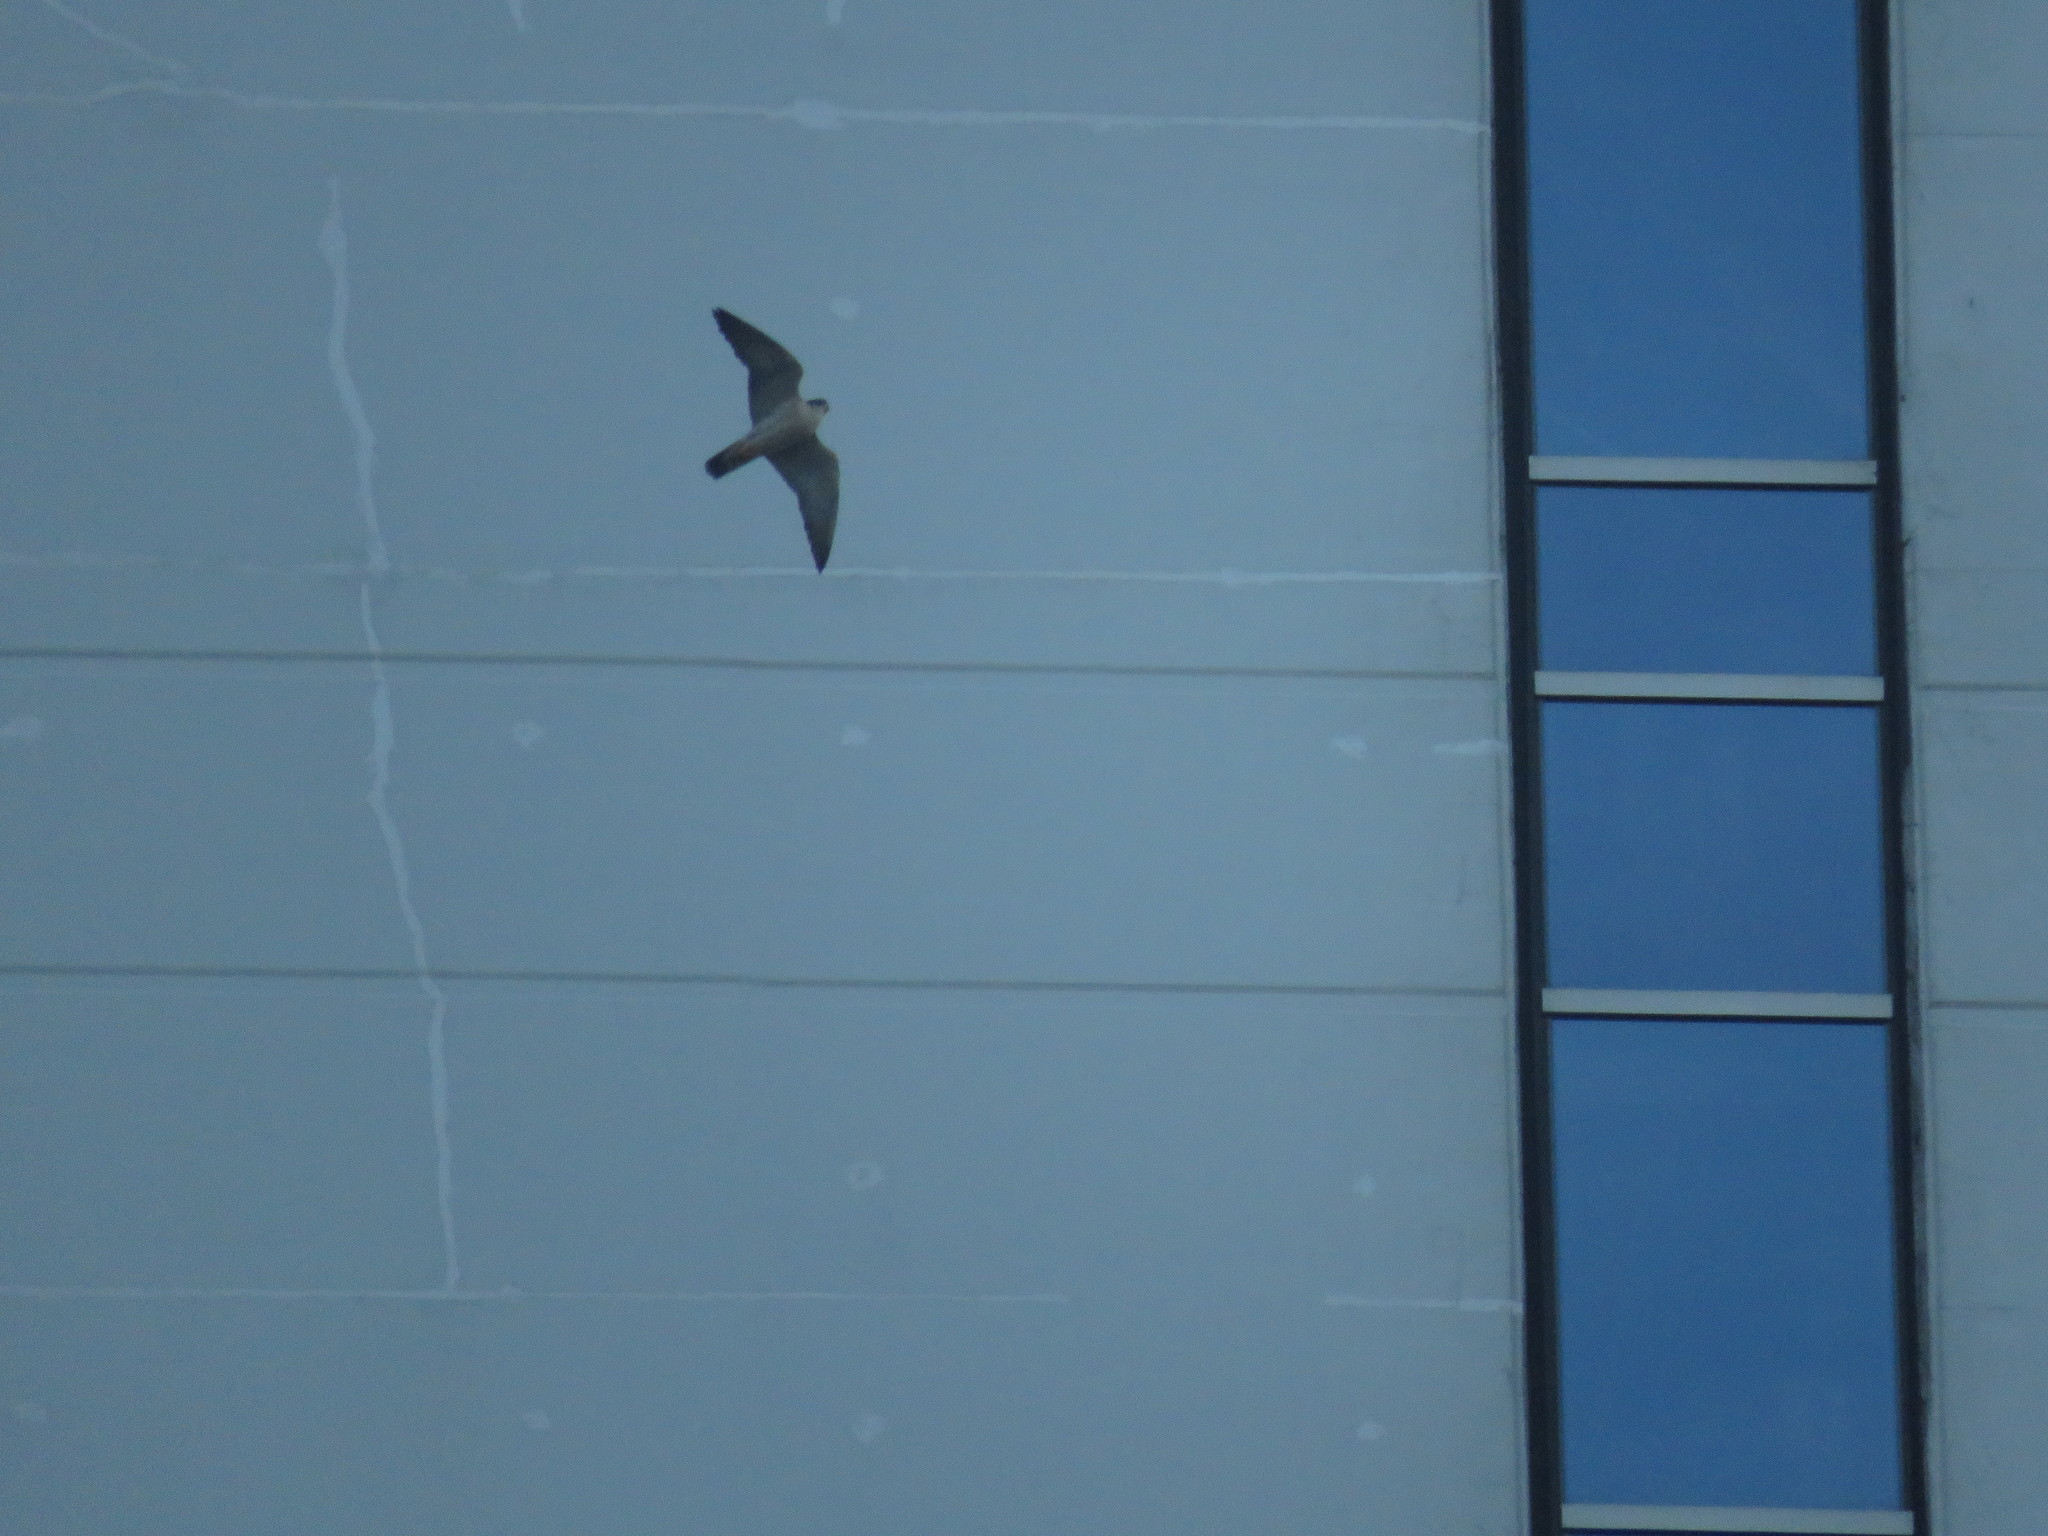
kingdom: Animalia
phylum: Chordata
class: Aves
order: Falconiformes
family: Falconidae
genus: Falco
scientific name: Falco peregrinus
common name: Peregrine falcon
